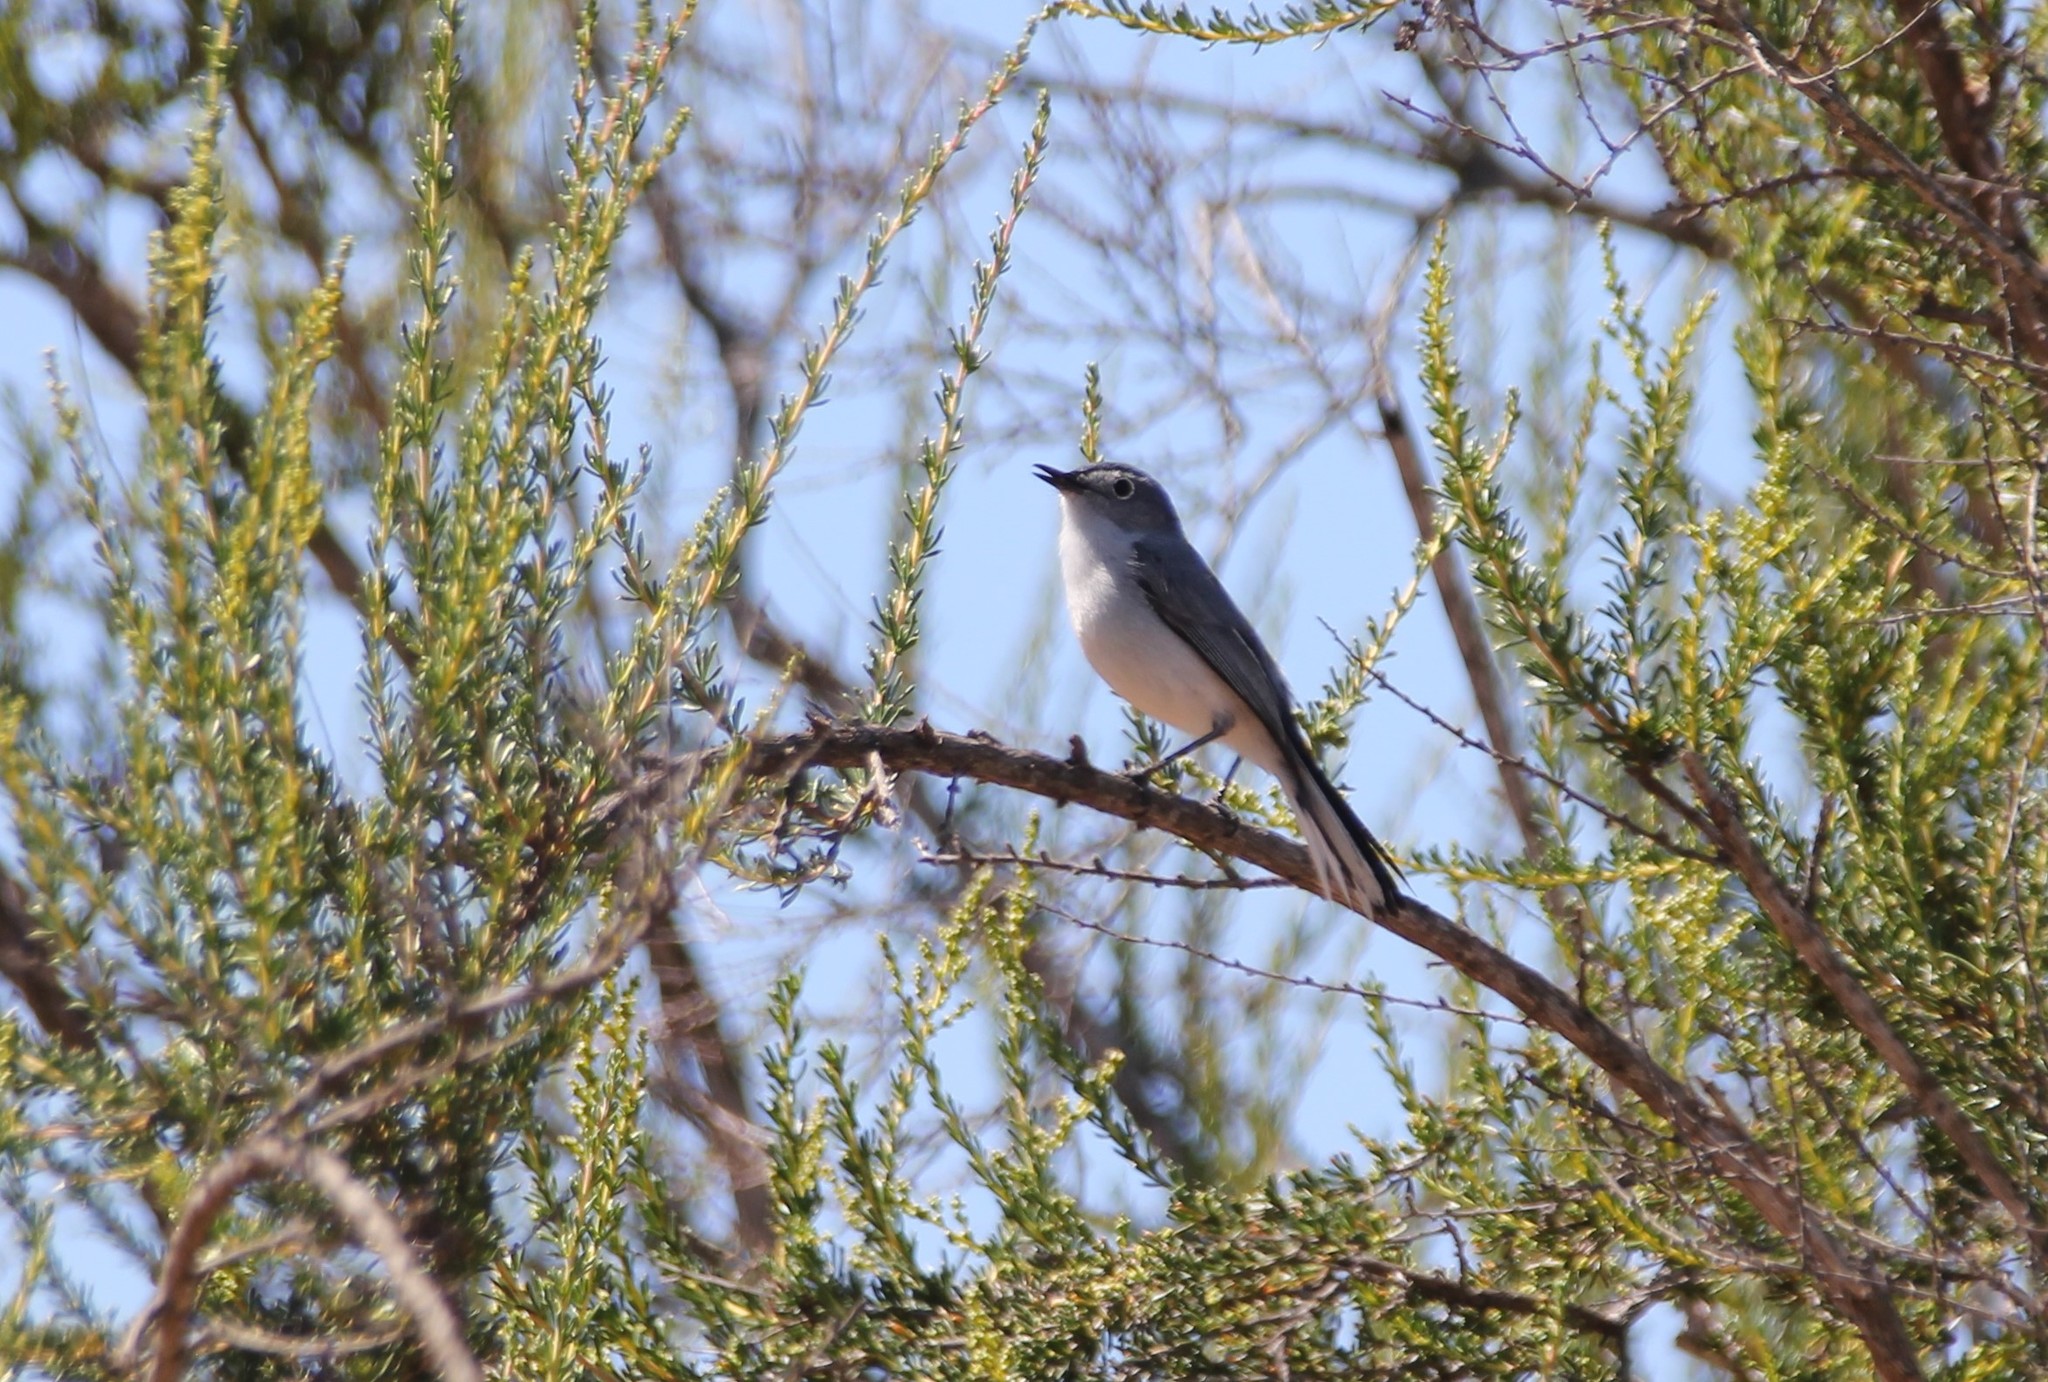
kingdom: Animalia
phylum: Chordata
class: Aves
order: Passeriformes
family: Polioptilidae
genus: Polioptila
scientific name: Polioptila caerulea
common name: Blue-gray gnatcatcher
